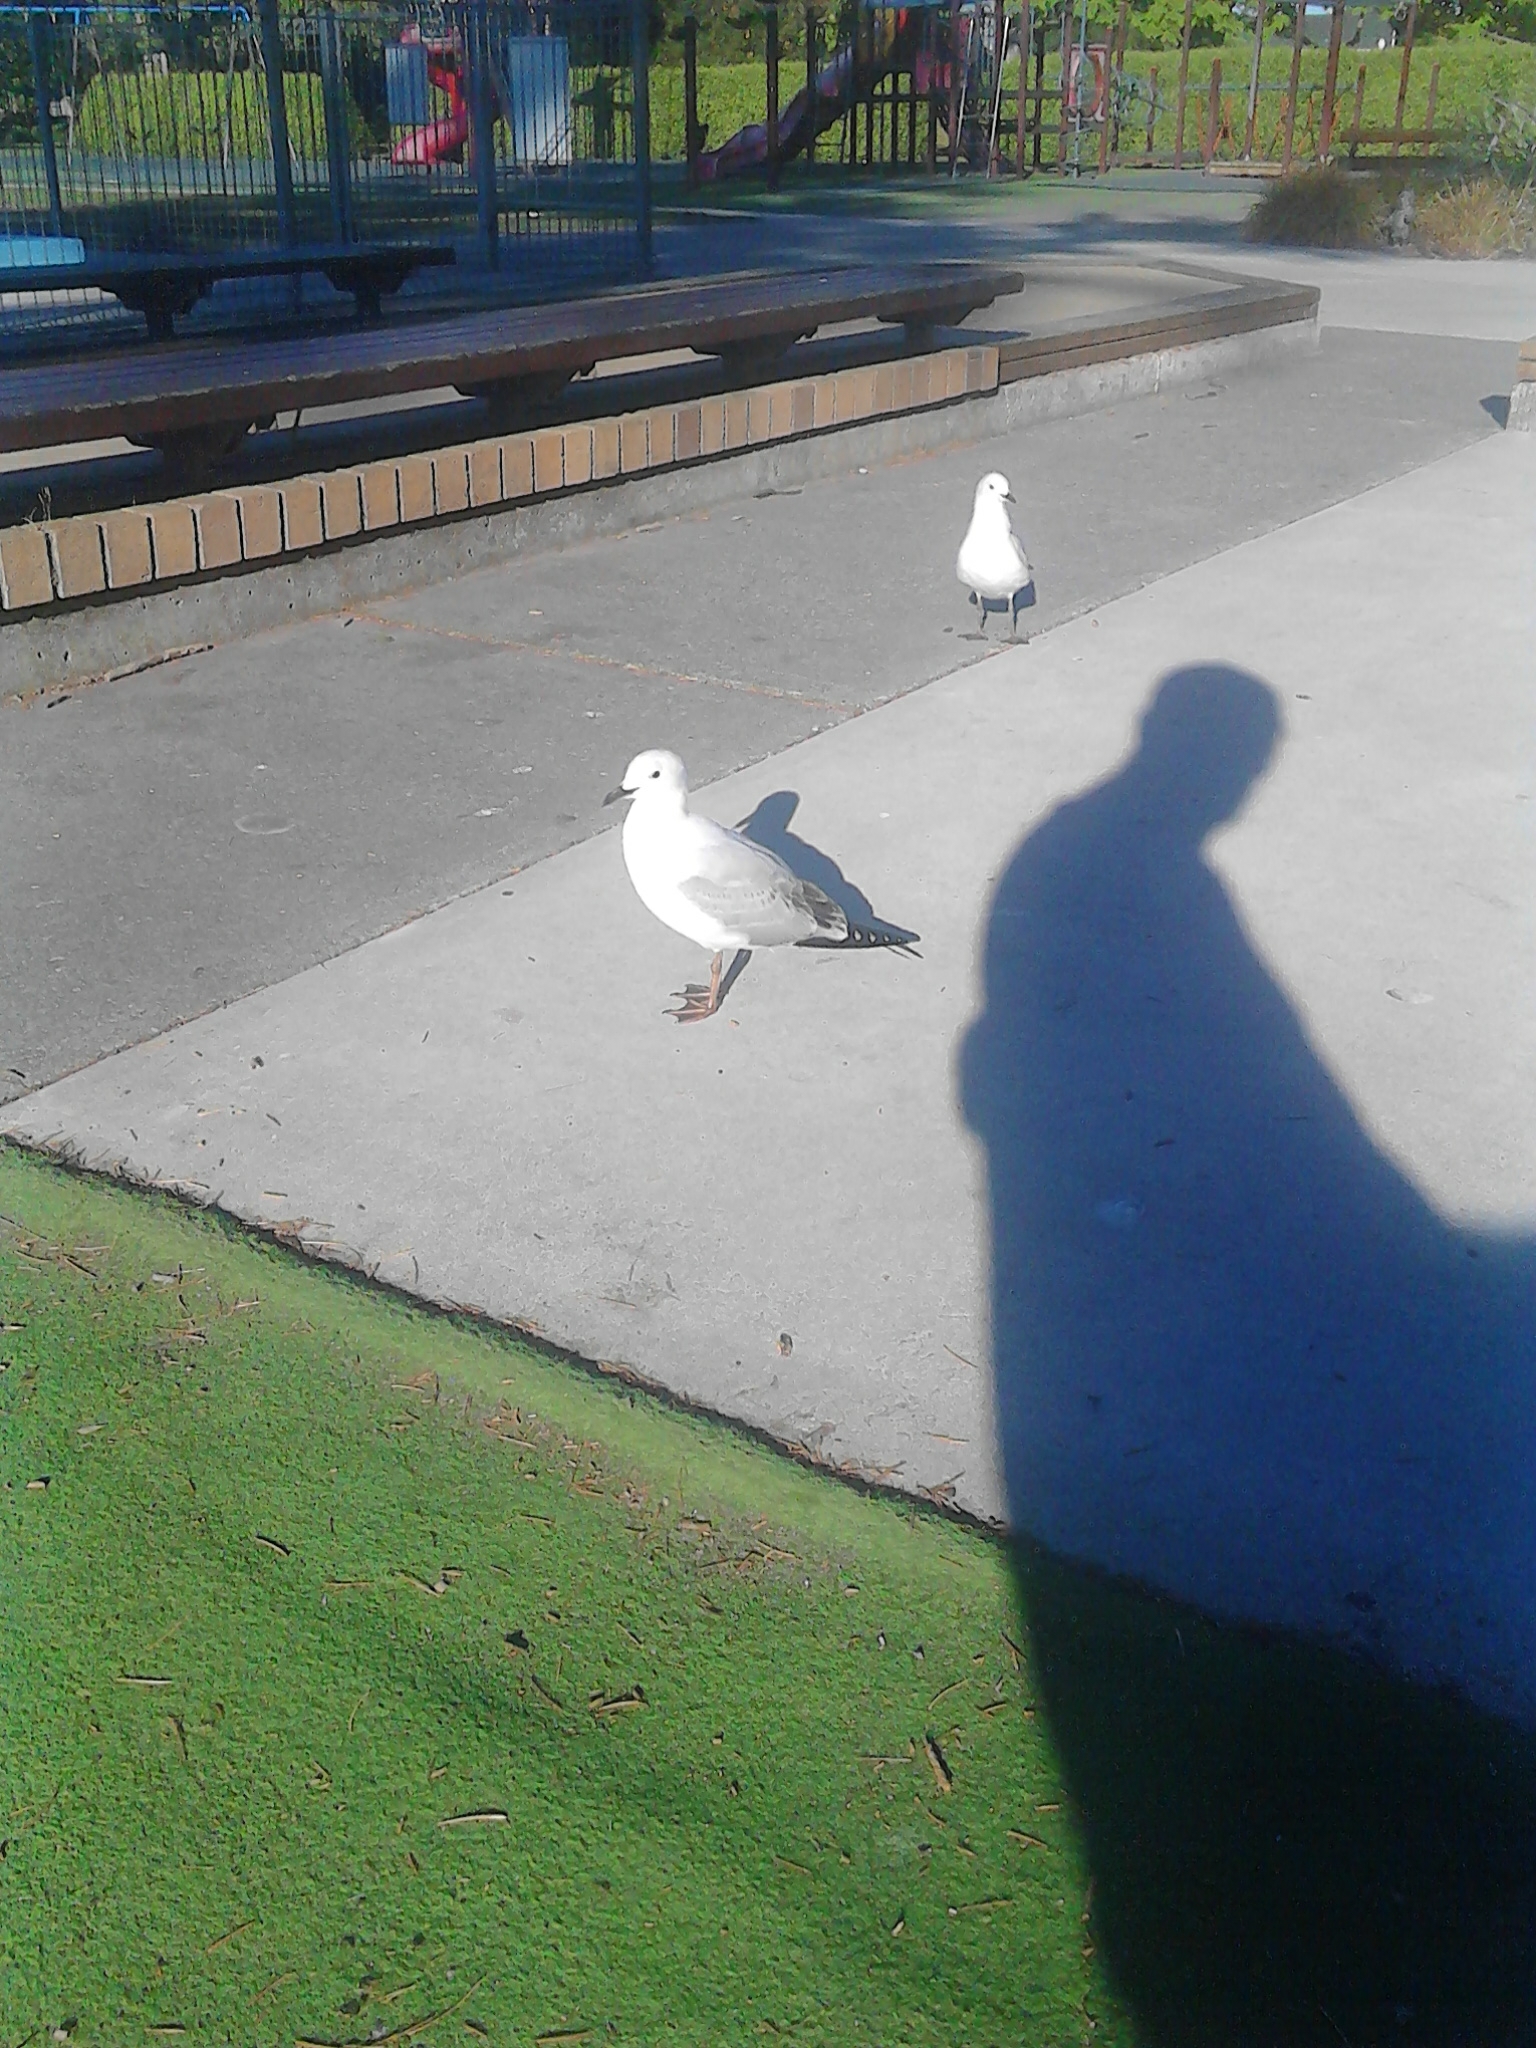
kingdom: Animalia
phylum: Chordata
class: Aves
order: Charadriiformes
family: Laridae
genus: Chroicocephalus
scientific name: Chroicocephalus novaehollandiae
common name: Silver gull
